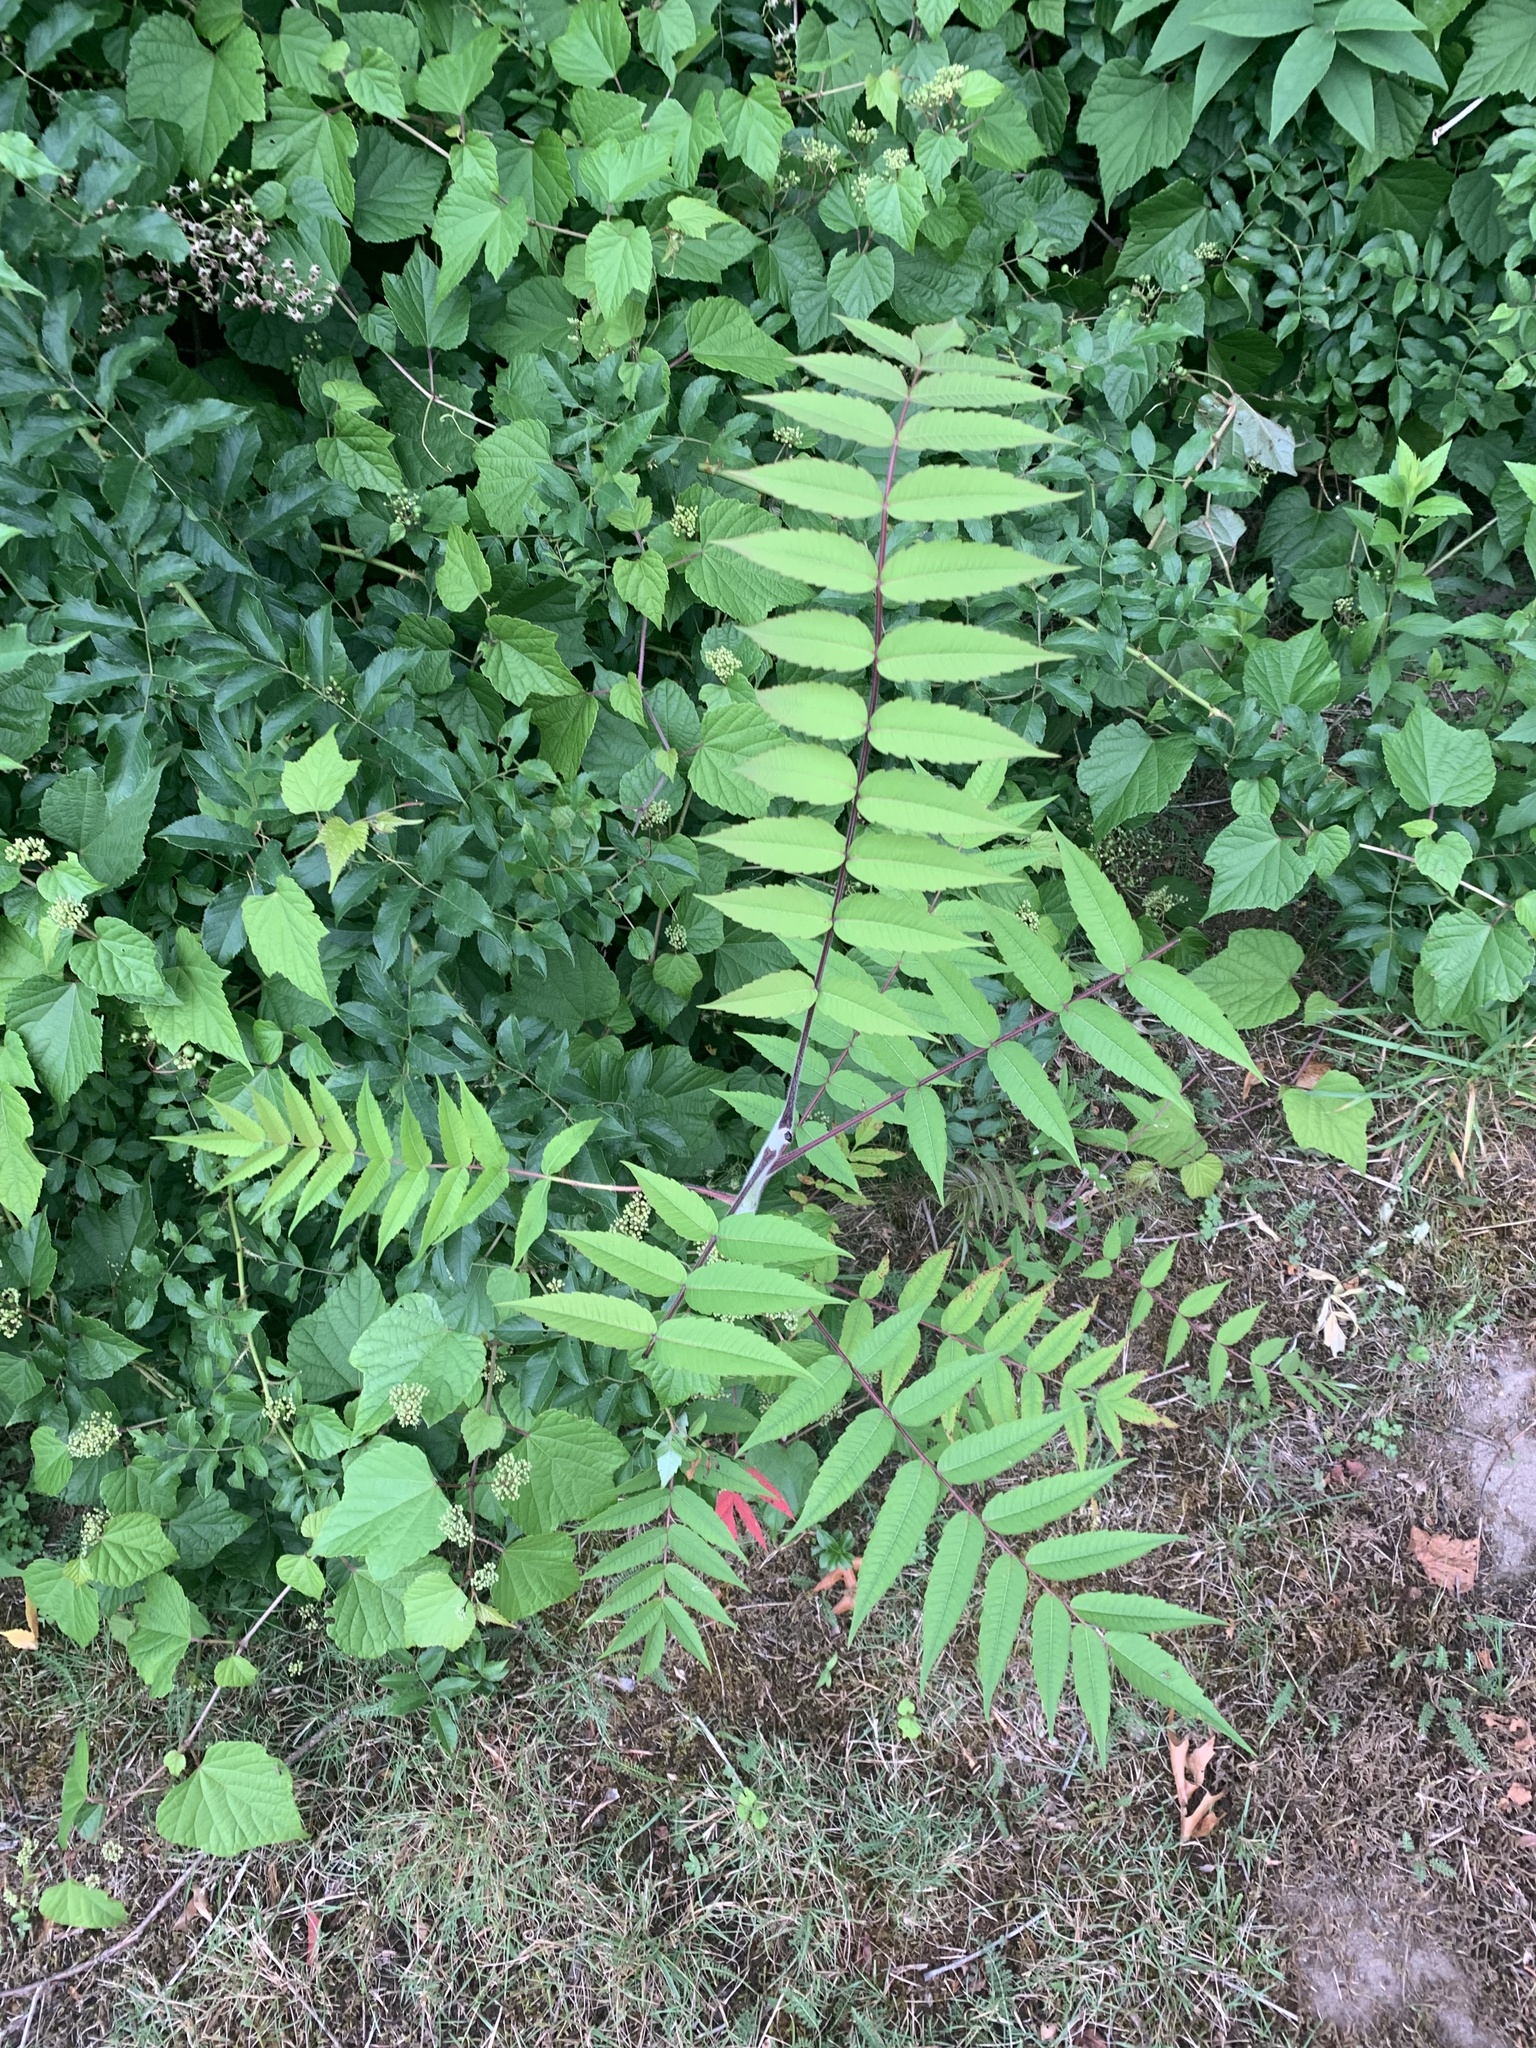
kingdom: Plantae
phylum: Tracheophyta
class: Magnoliopsida
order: Sapindales
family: Anacardiaceae
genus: Rhus
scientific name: Rhus typhina
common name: Staghorn sumac
